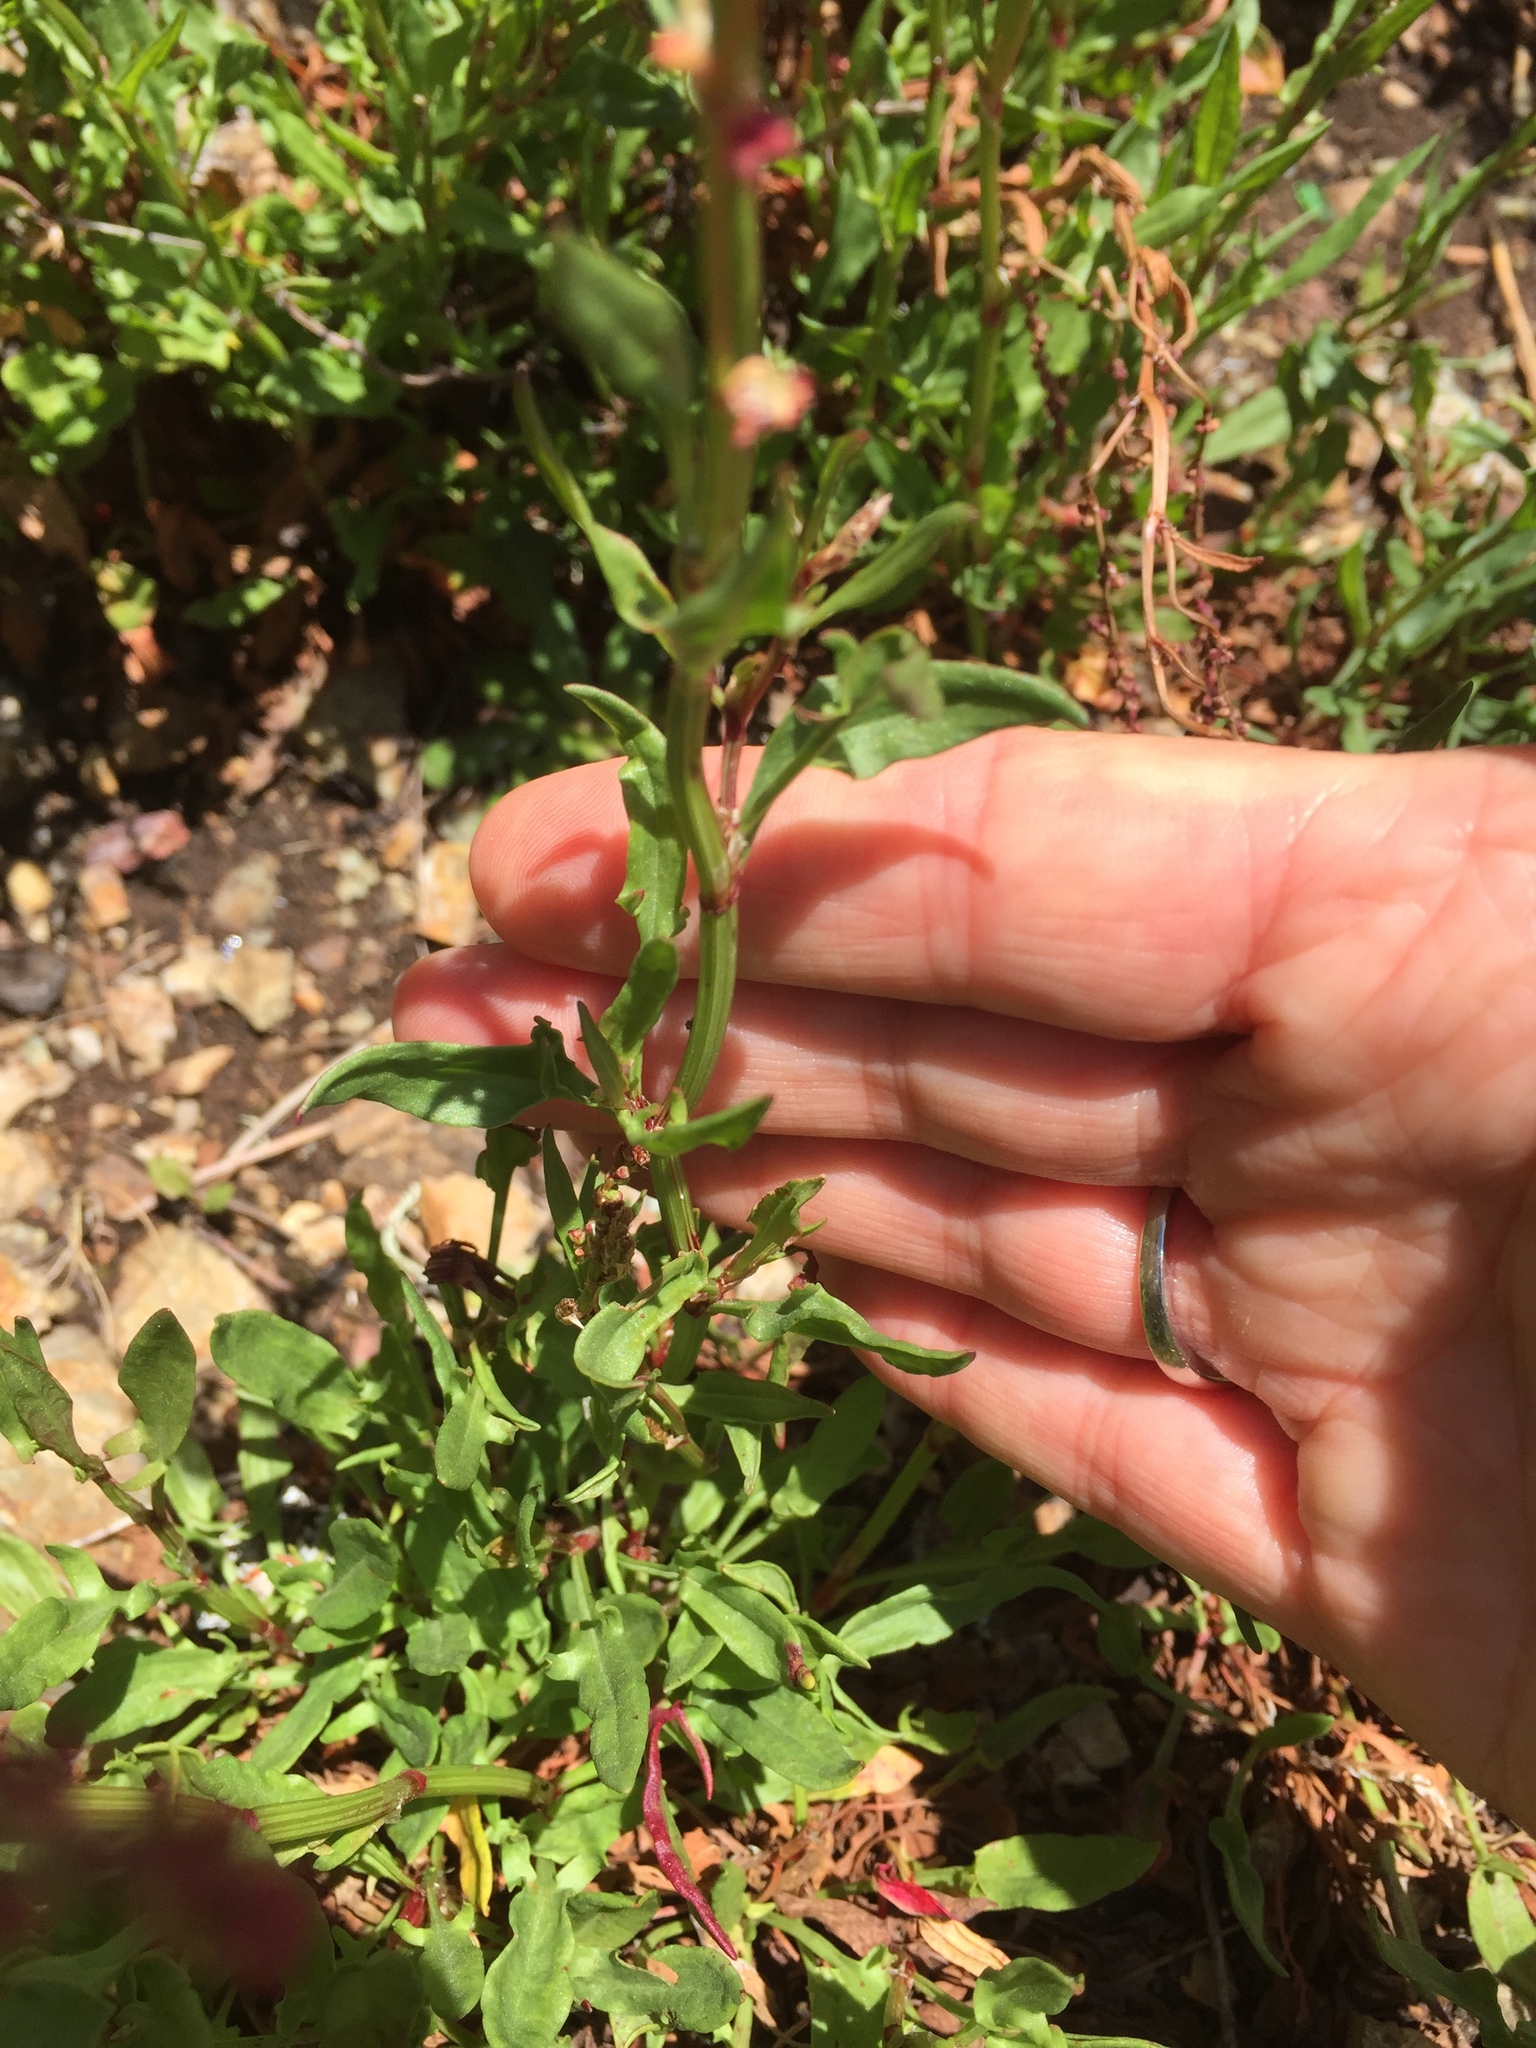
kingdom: Plantae
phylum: Tracheophyta
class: Magnoliopsida
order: Caryophyllales
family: Polygonaceae
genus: Rumex
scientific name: Rumex acetosella
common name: Common sheep sorrel
